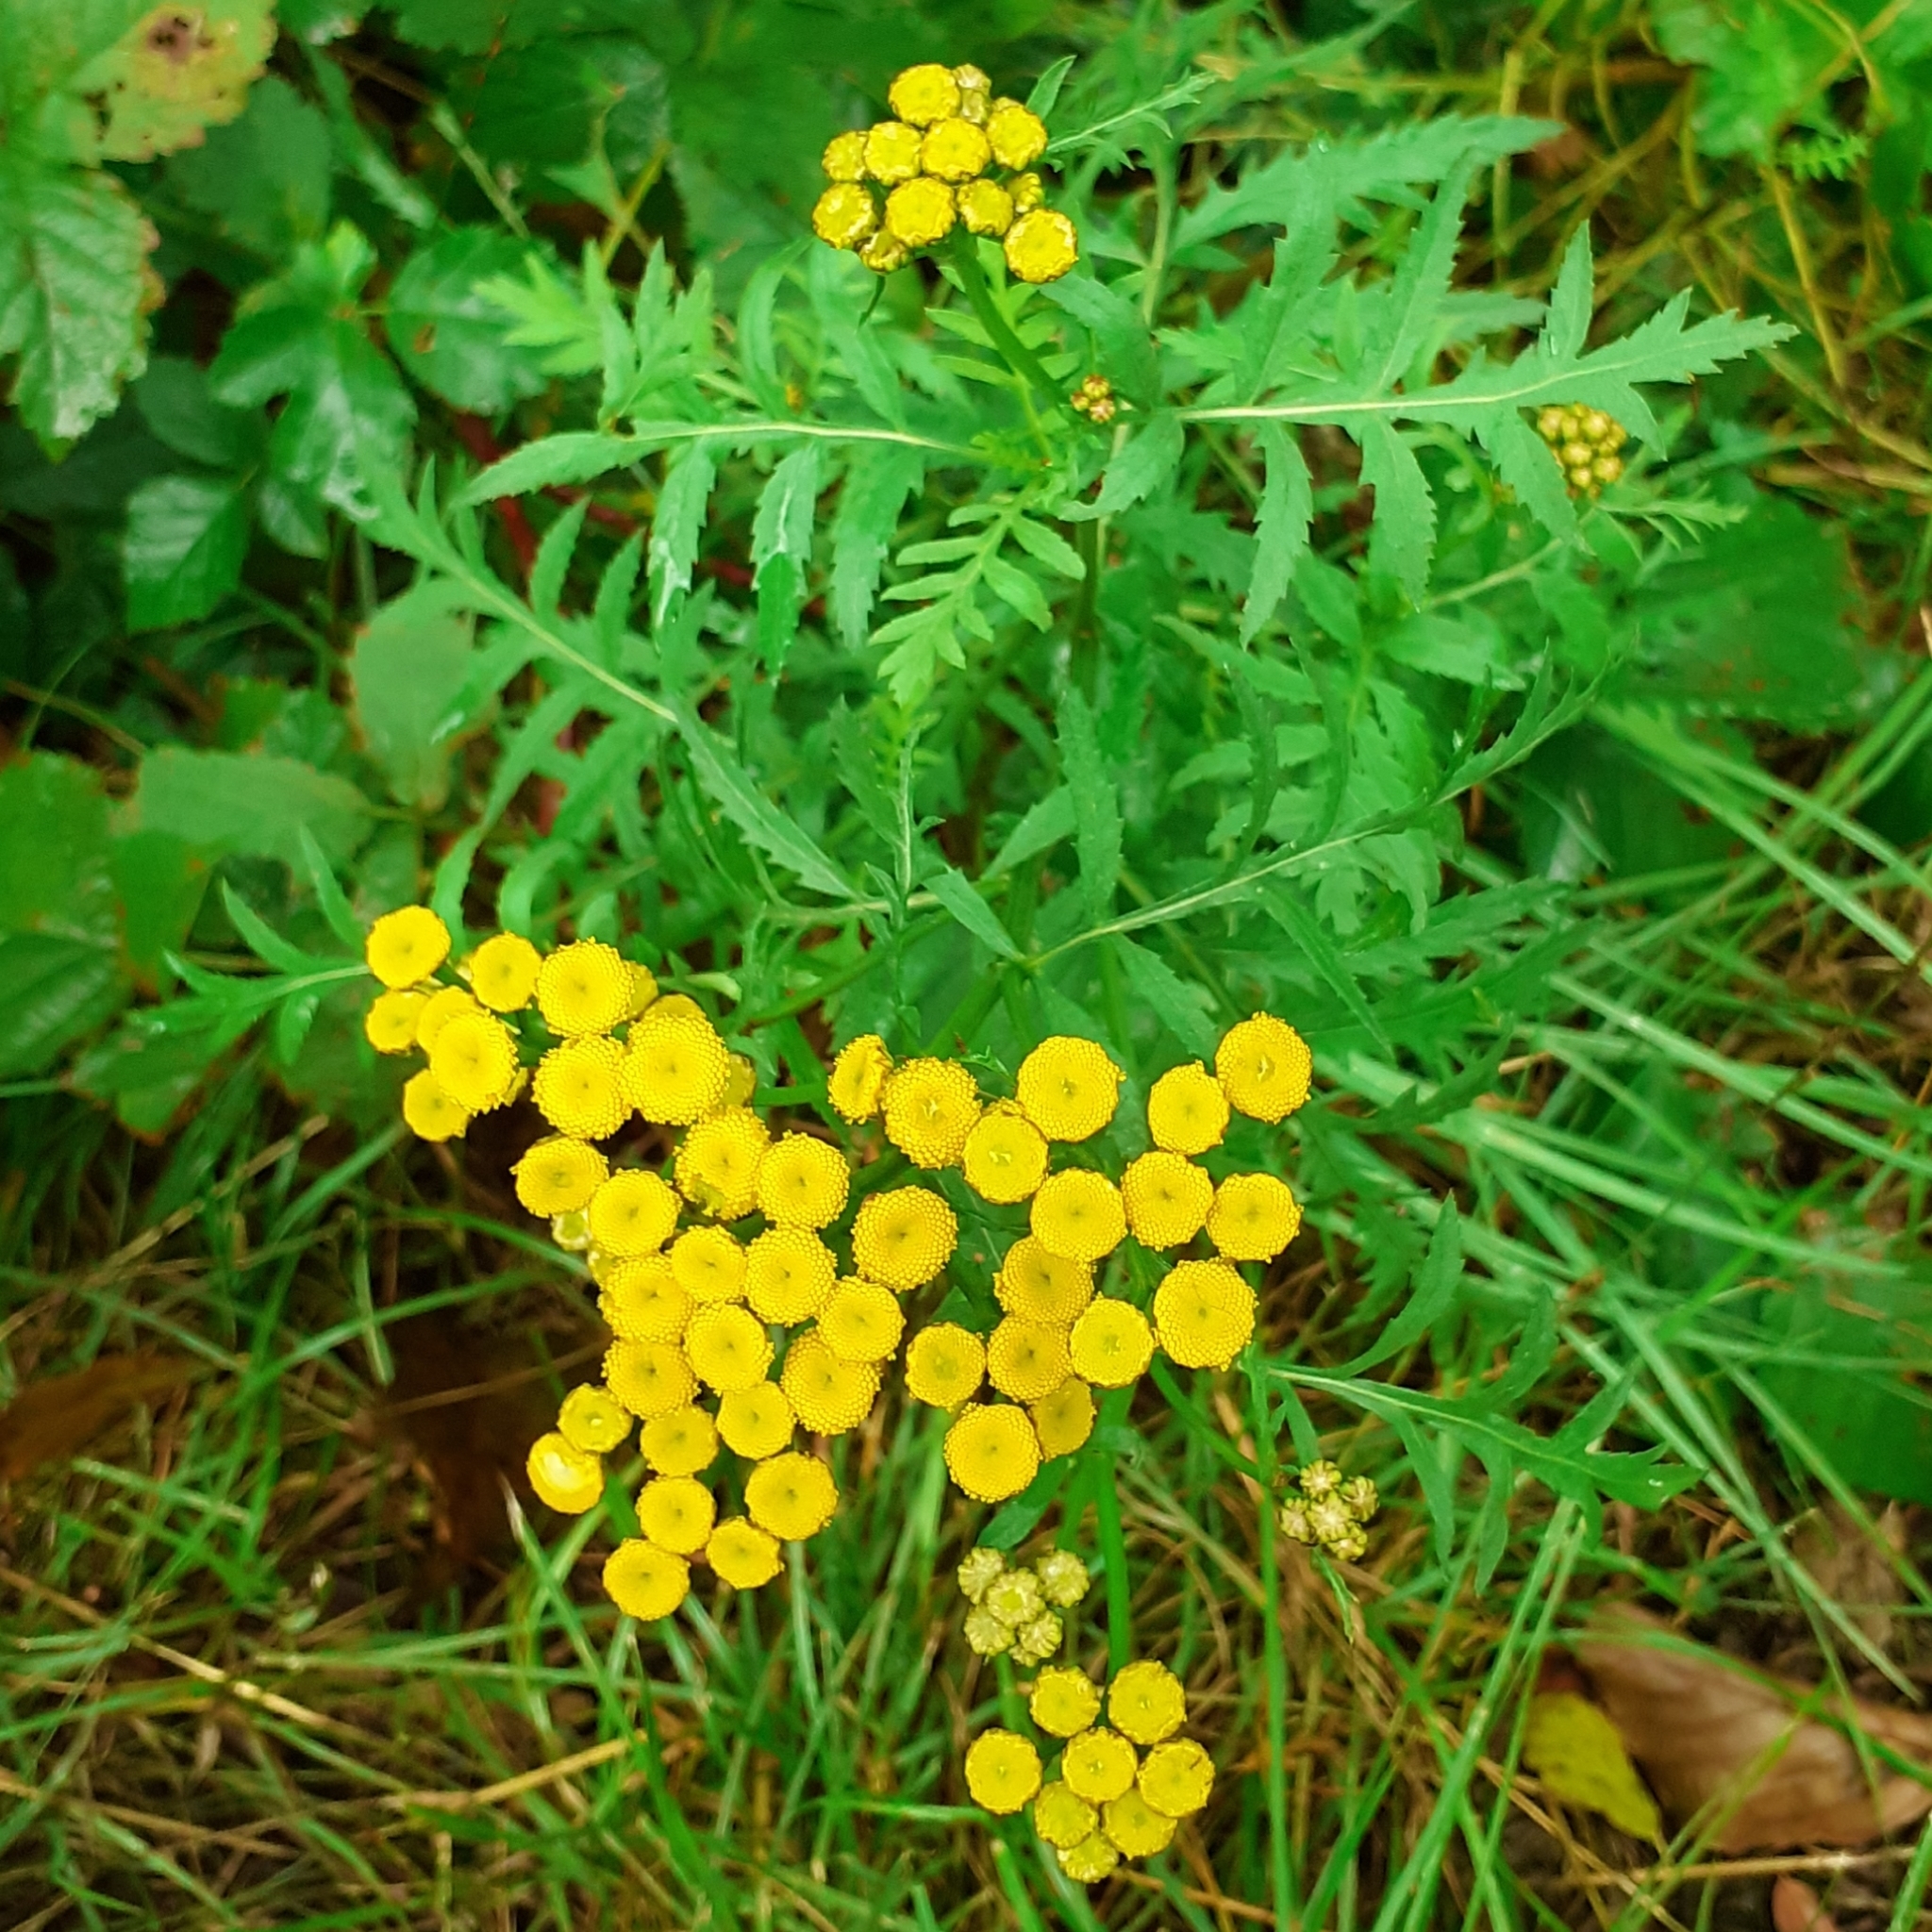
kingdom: Plantae
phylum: Tracheophyta
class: Magnoliopsida
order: Asterales
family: Asteraceae
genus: Tanacetum
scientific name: Tanacetum vulgare
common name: Common tansy
